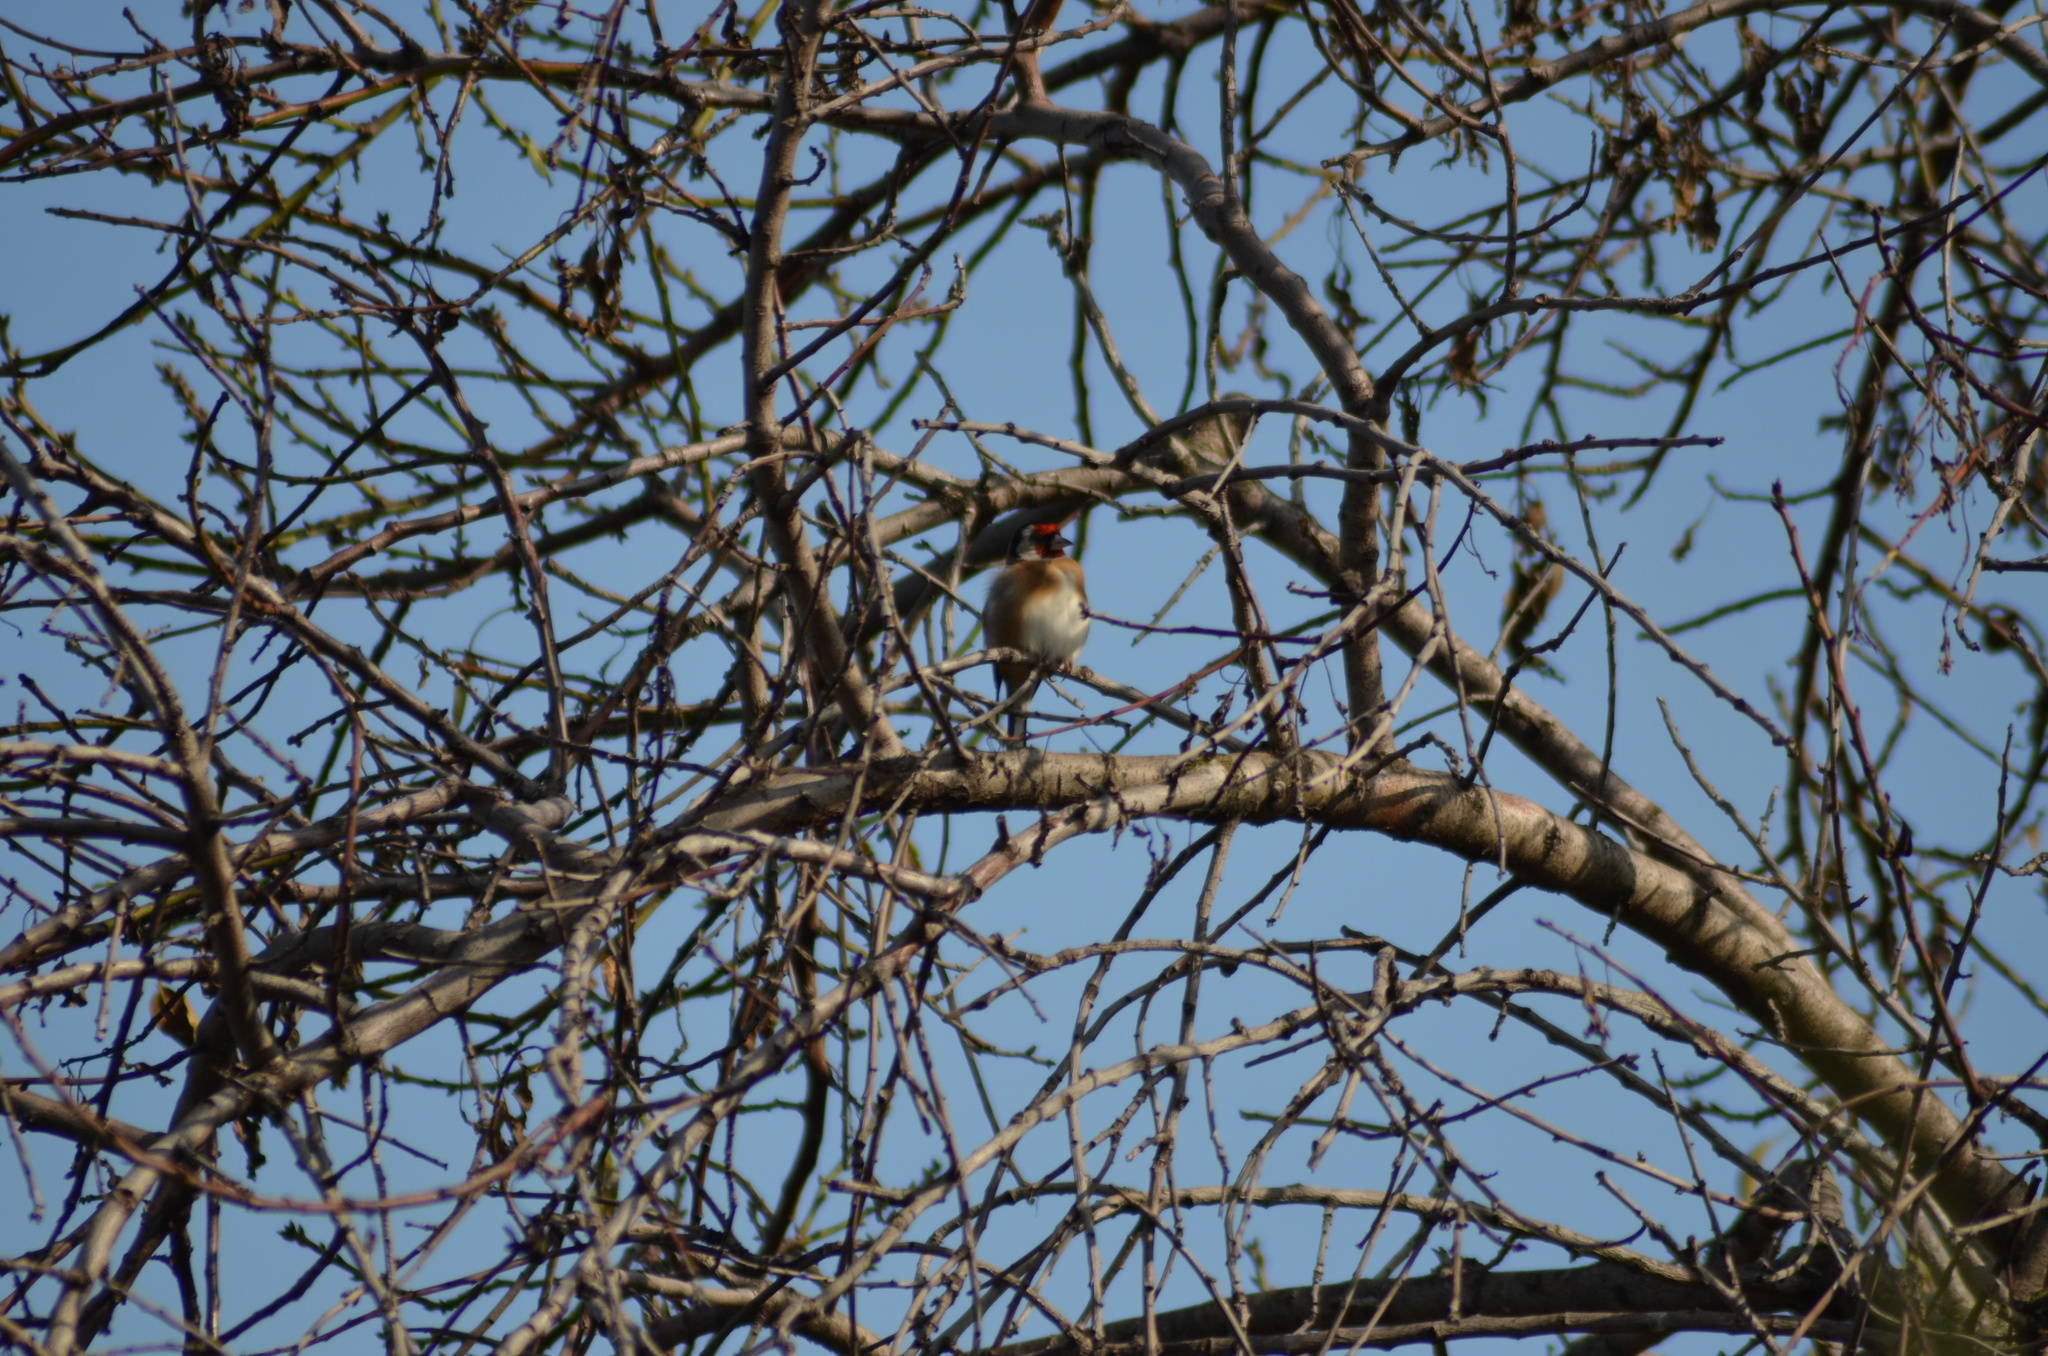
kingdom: Animalia
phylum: Chordata
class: Aves
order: Passeriformes
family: Fringillidae
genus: Carduelis
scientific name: Carduelis carduelis
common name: European goldfinch
